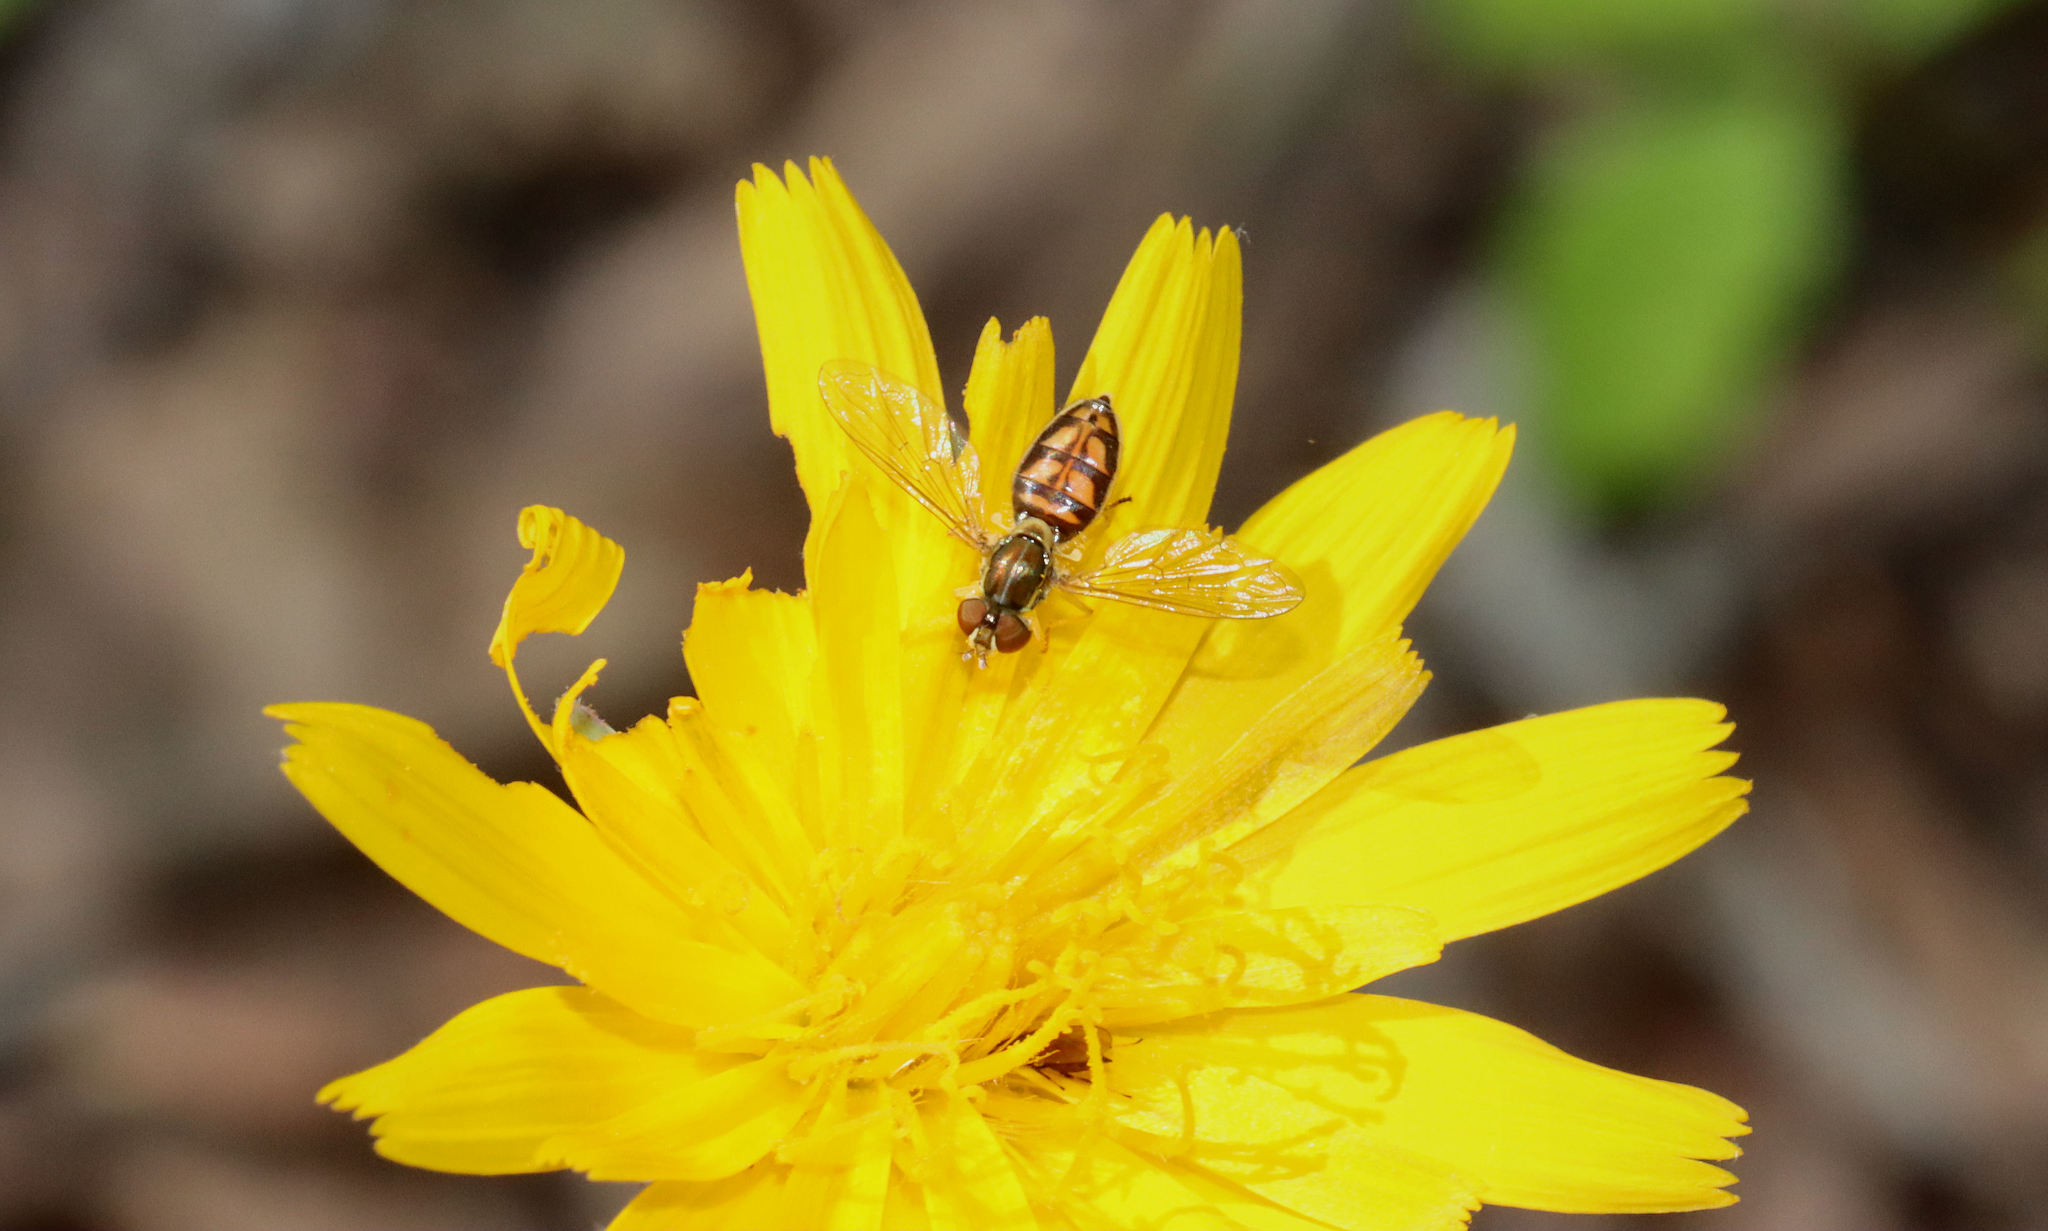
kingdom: Animalia
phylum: Arthropoda
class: Insecta
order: Diptera
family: Syrphidae
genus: Toxomerus
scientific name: Toxomerus marginatus
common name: Syrphid fly
